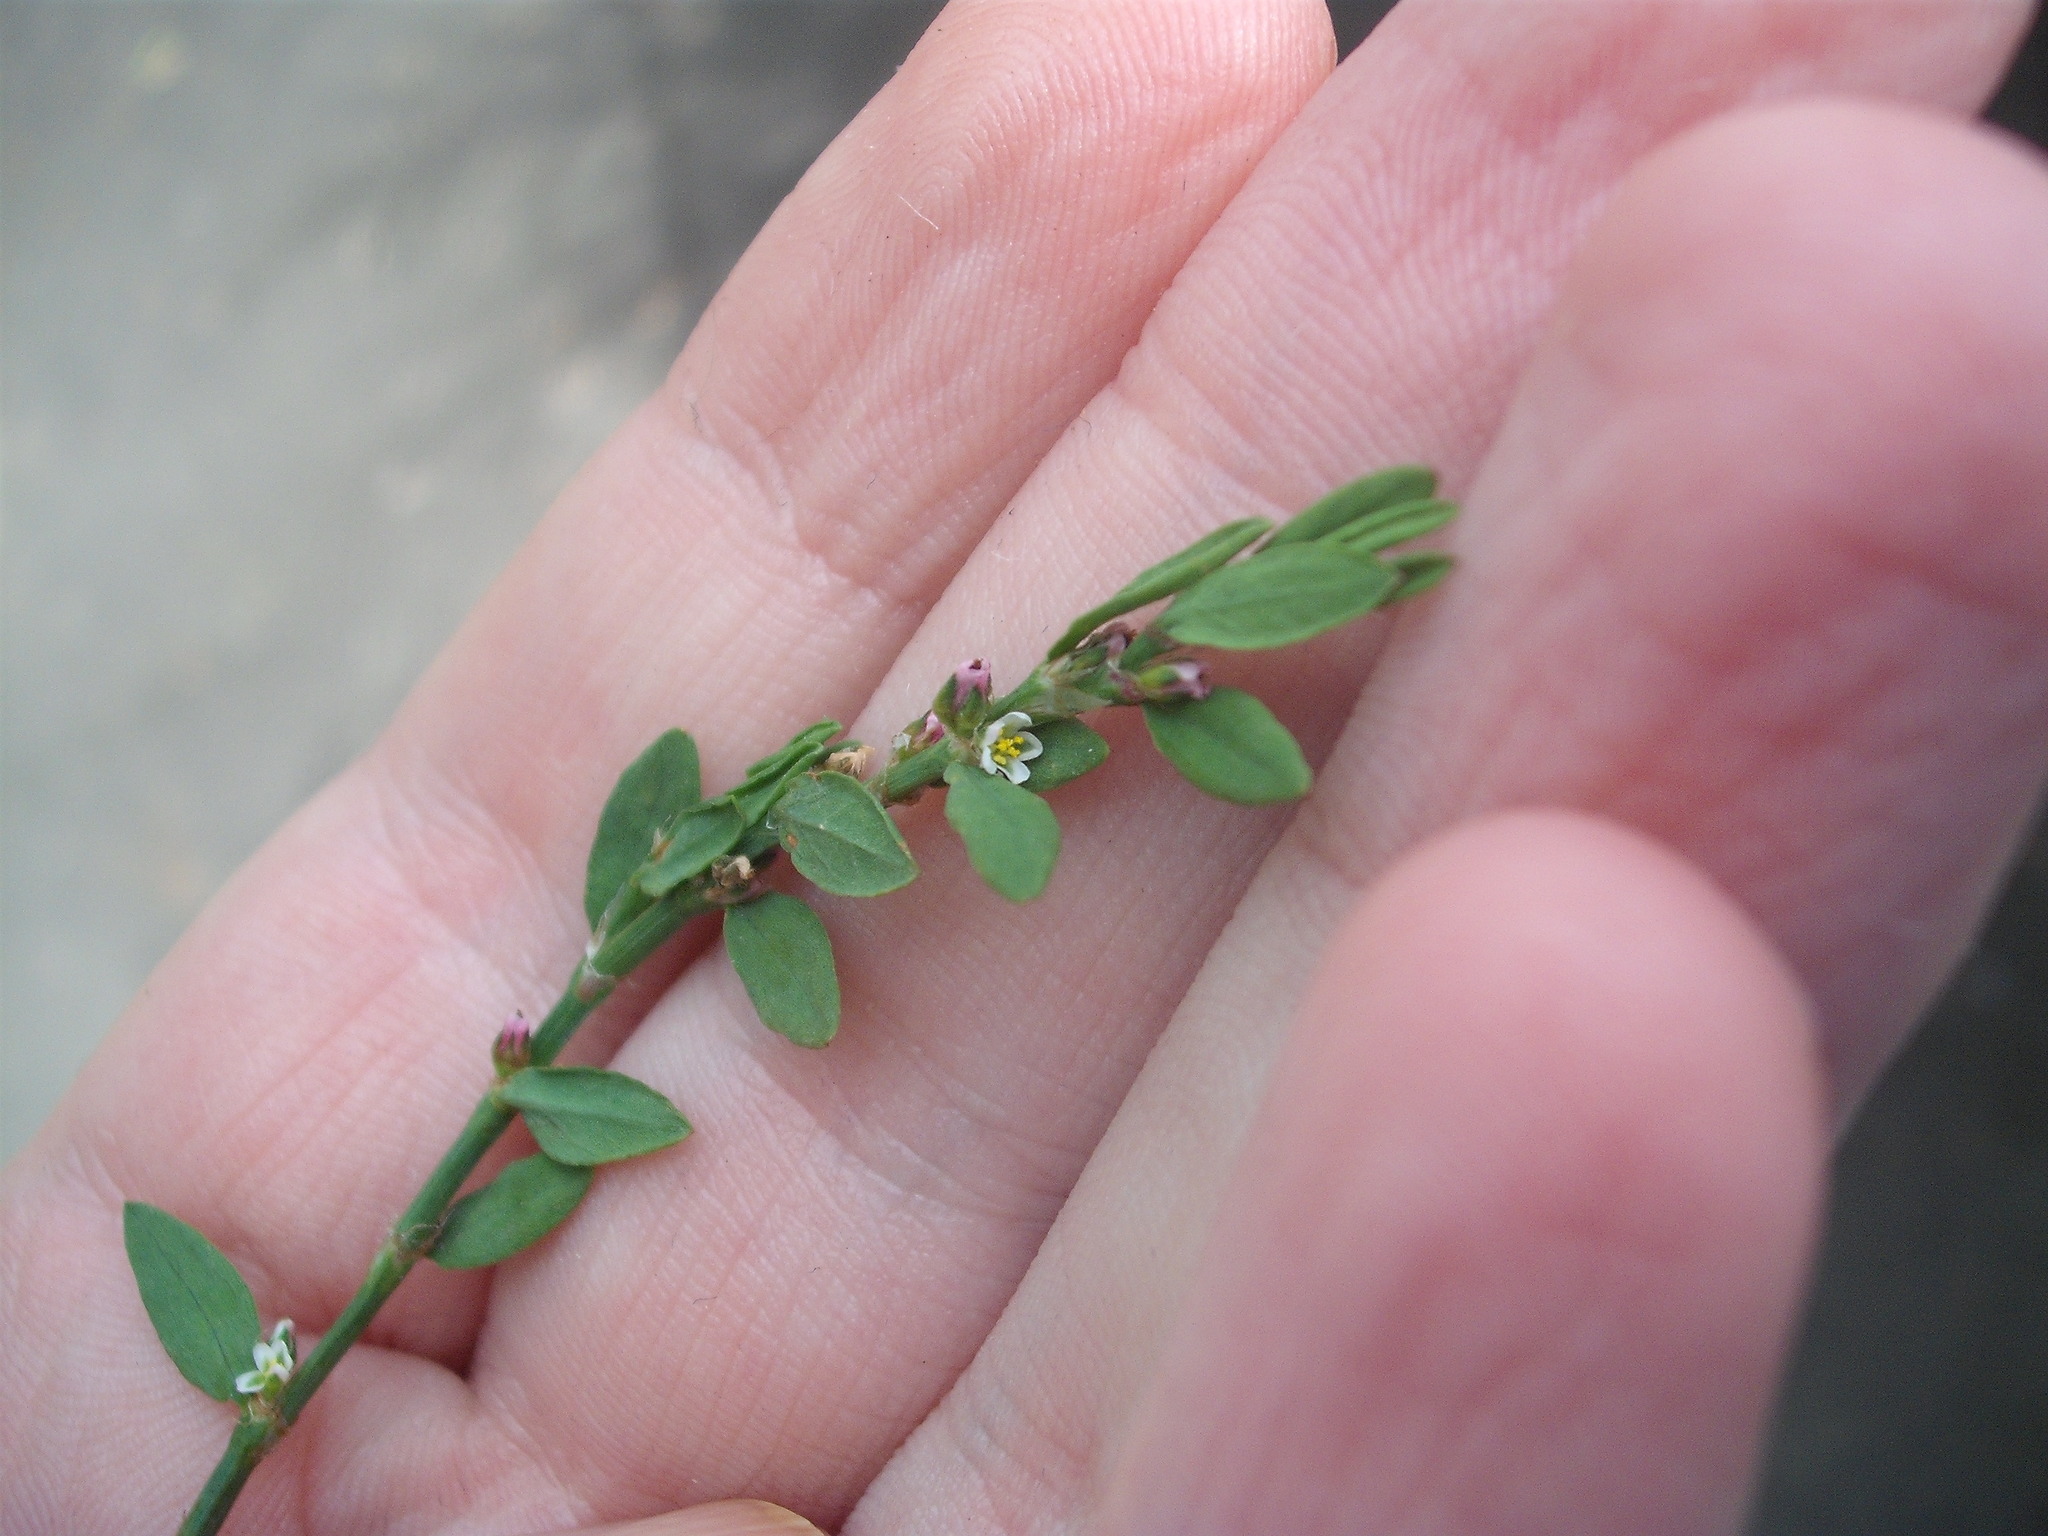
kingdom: Plantae
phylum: Tracheophyta
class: Magnoliopsida
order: Caryophyllales
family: Polygonaceae
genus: Polygonum
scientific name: Polygonum aviculare
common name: Prostrate knotweed
